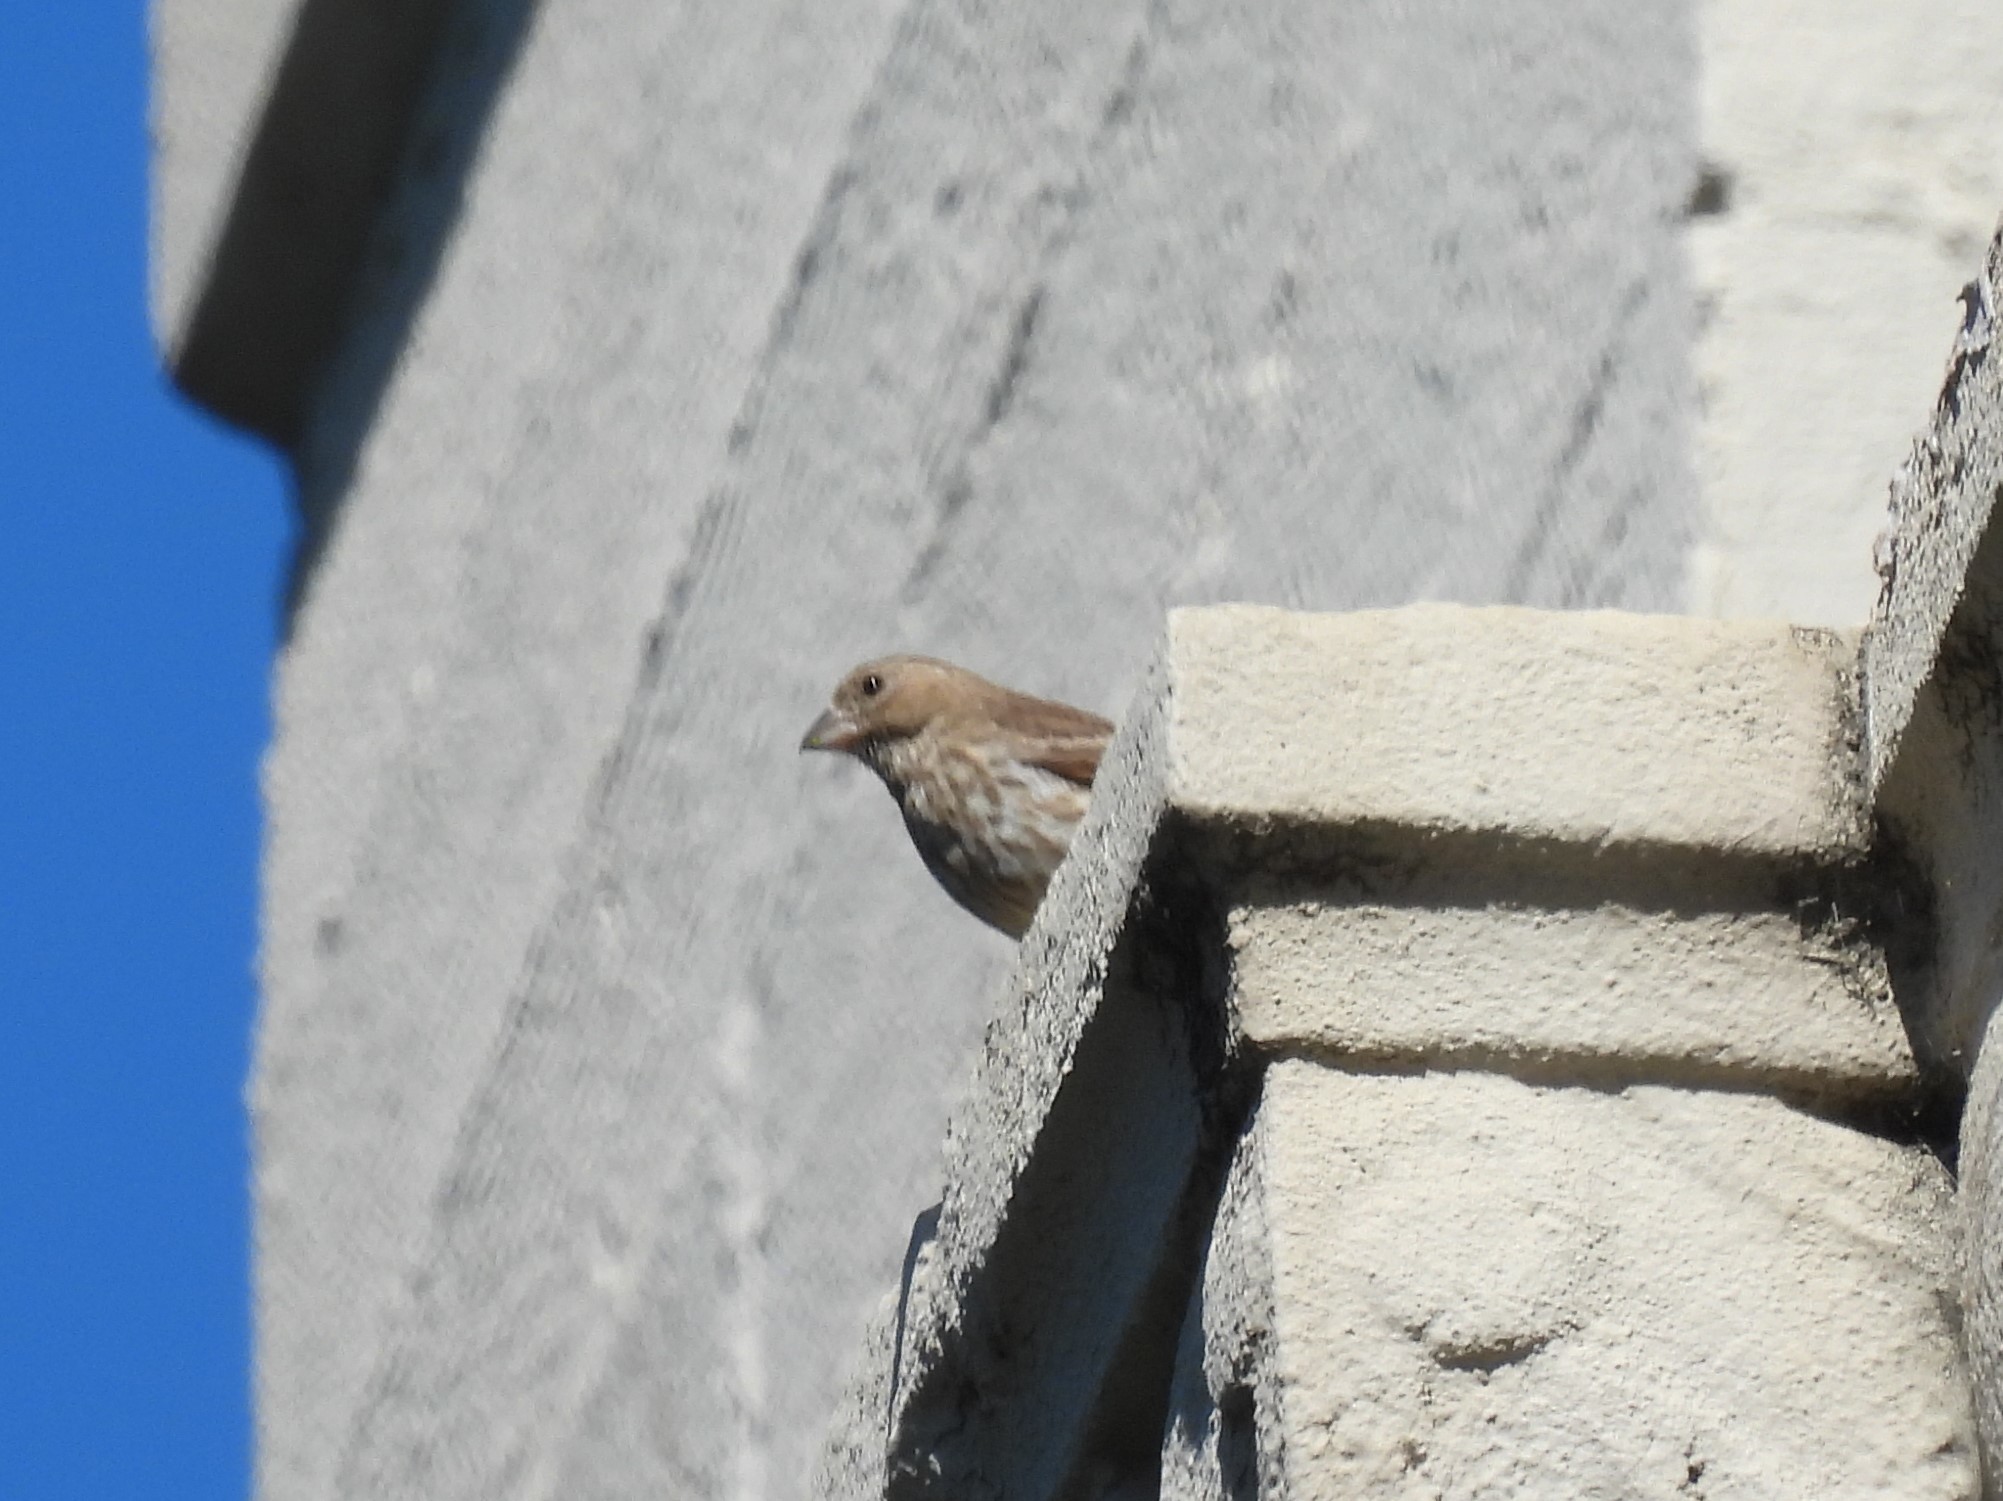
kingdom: Animalia
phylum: Chordata
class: Aves
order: Passeriformes
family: Fringillidae
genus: Haemorhous
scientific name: Haemorhous mexicanus
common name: House finch
